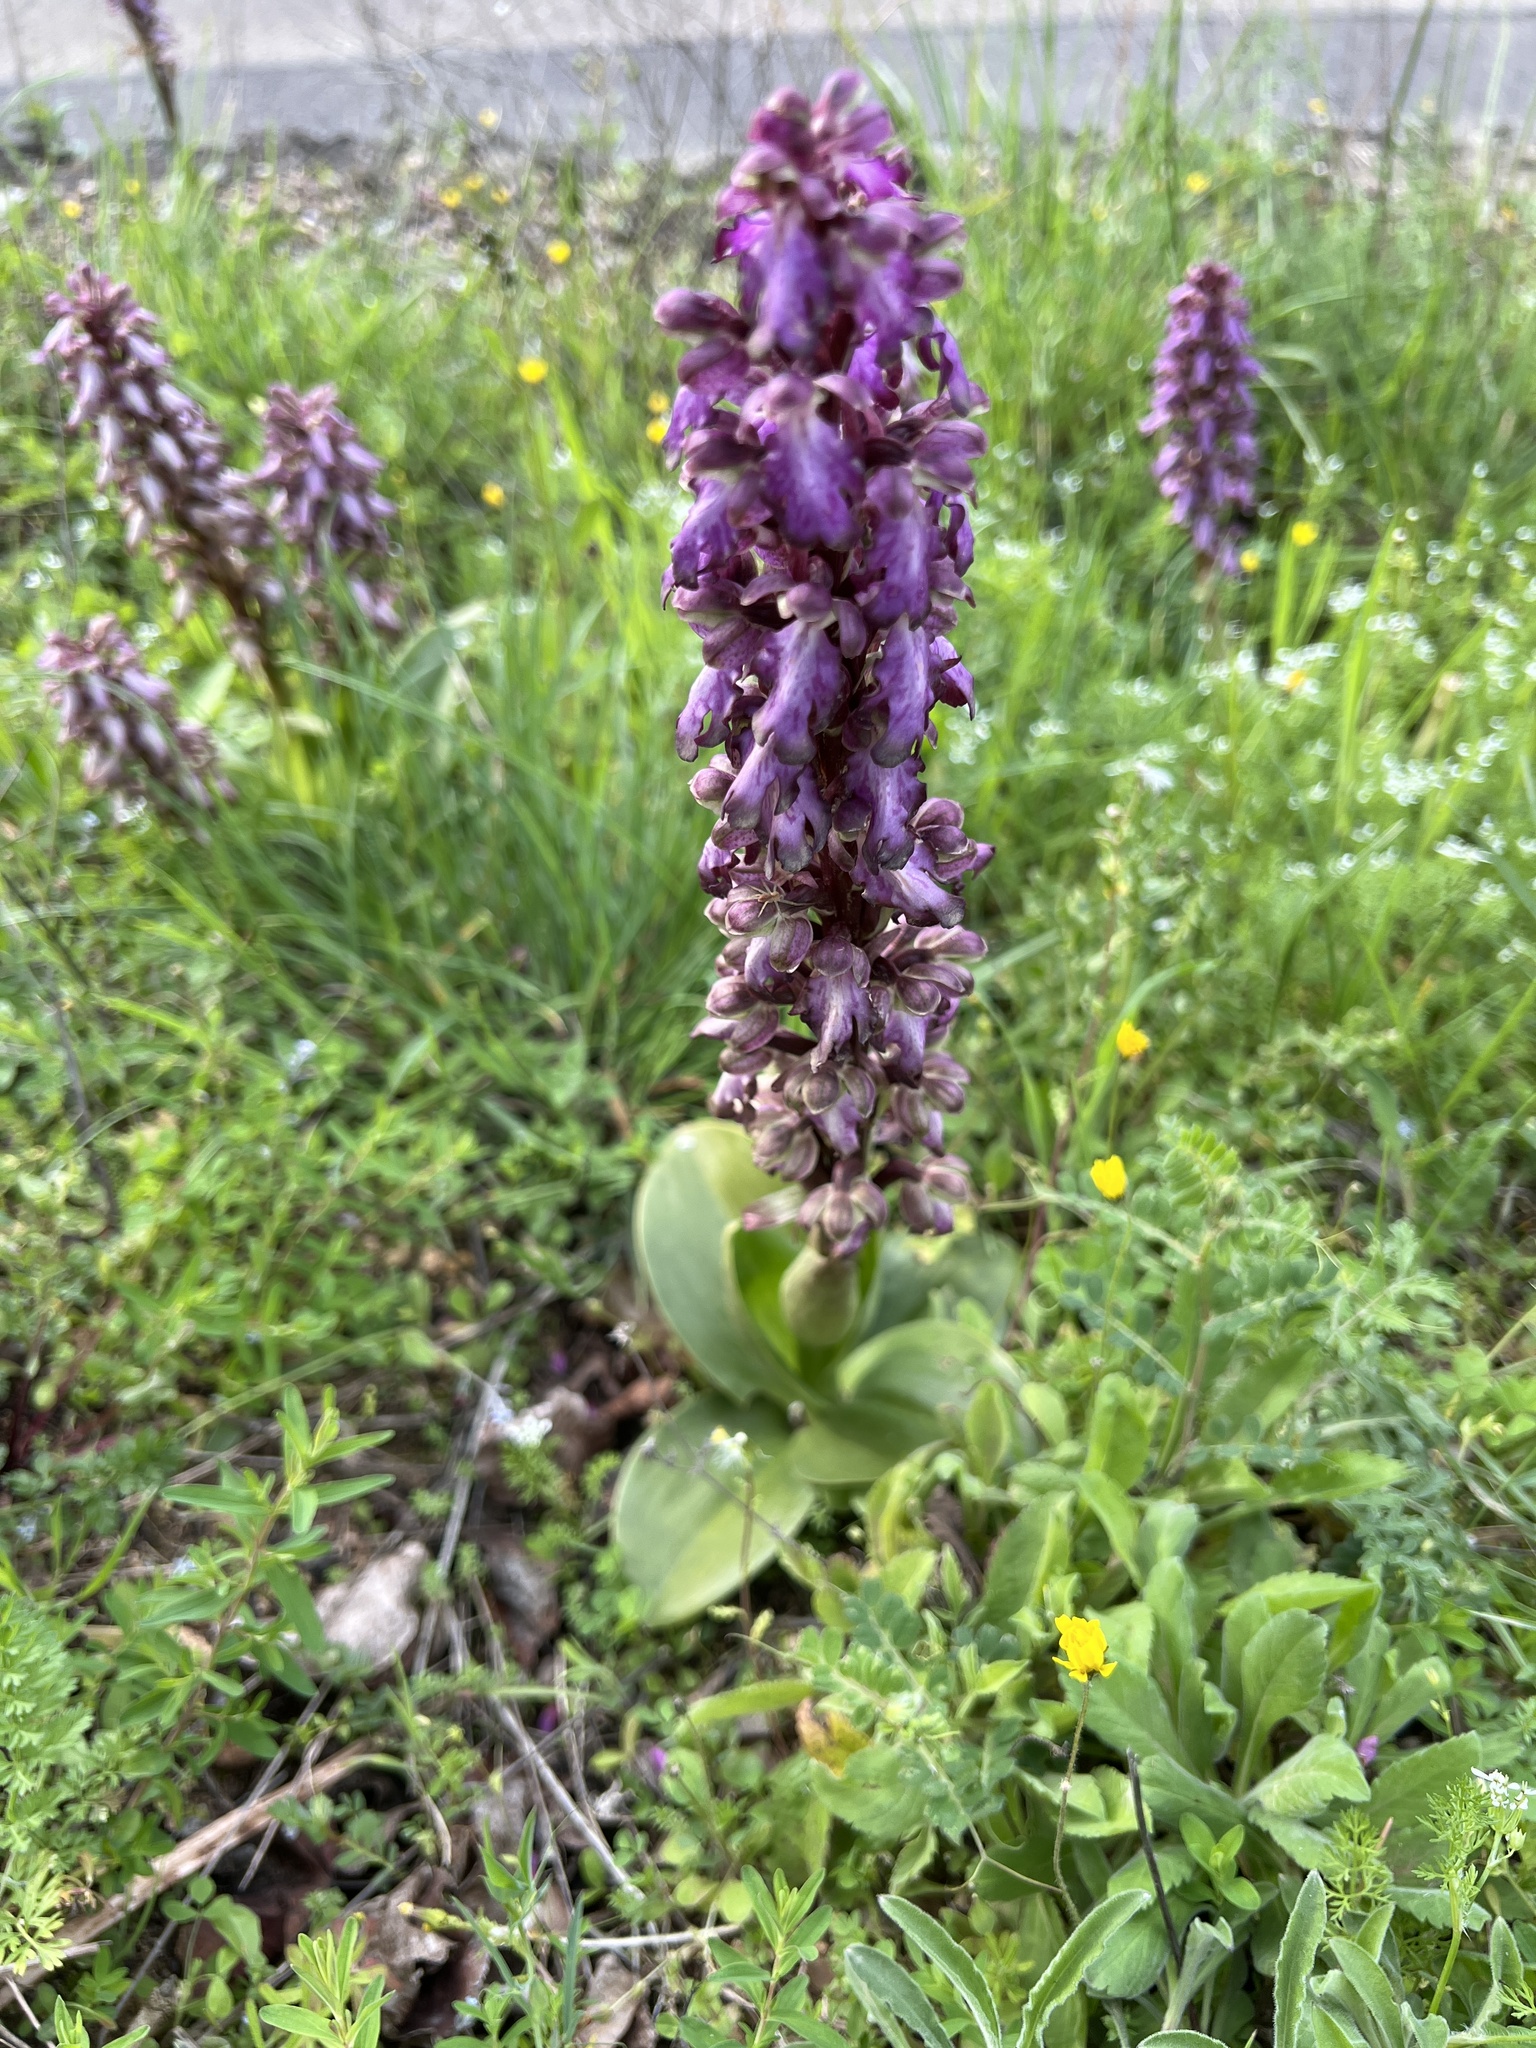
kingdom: Plantae
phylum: Tracheophyta
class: Liliopsida
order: Asparagales
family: Orchidaceae
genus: Himantoglossum
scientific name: Himantoglossum robertianum
